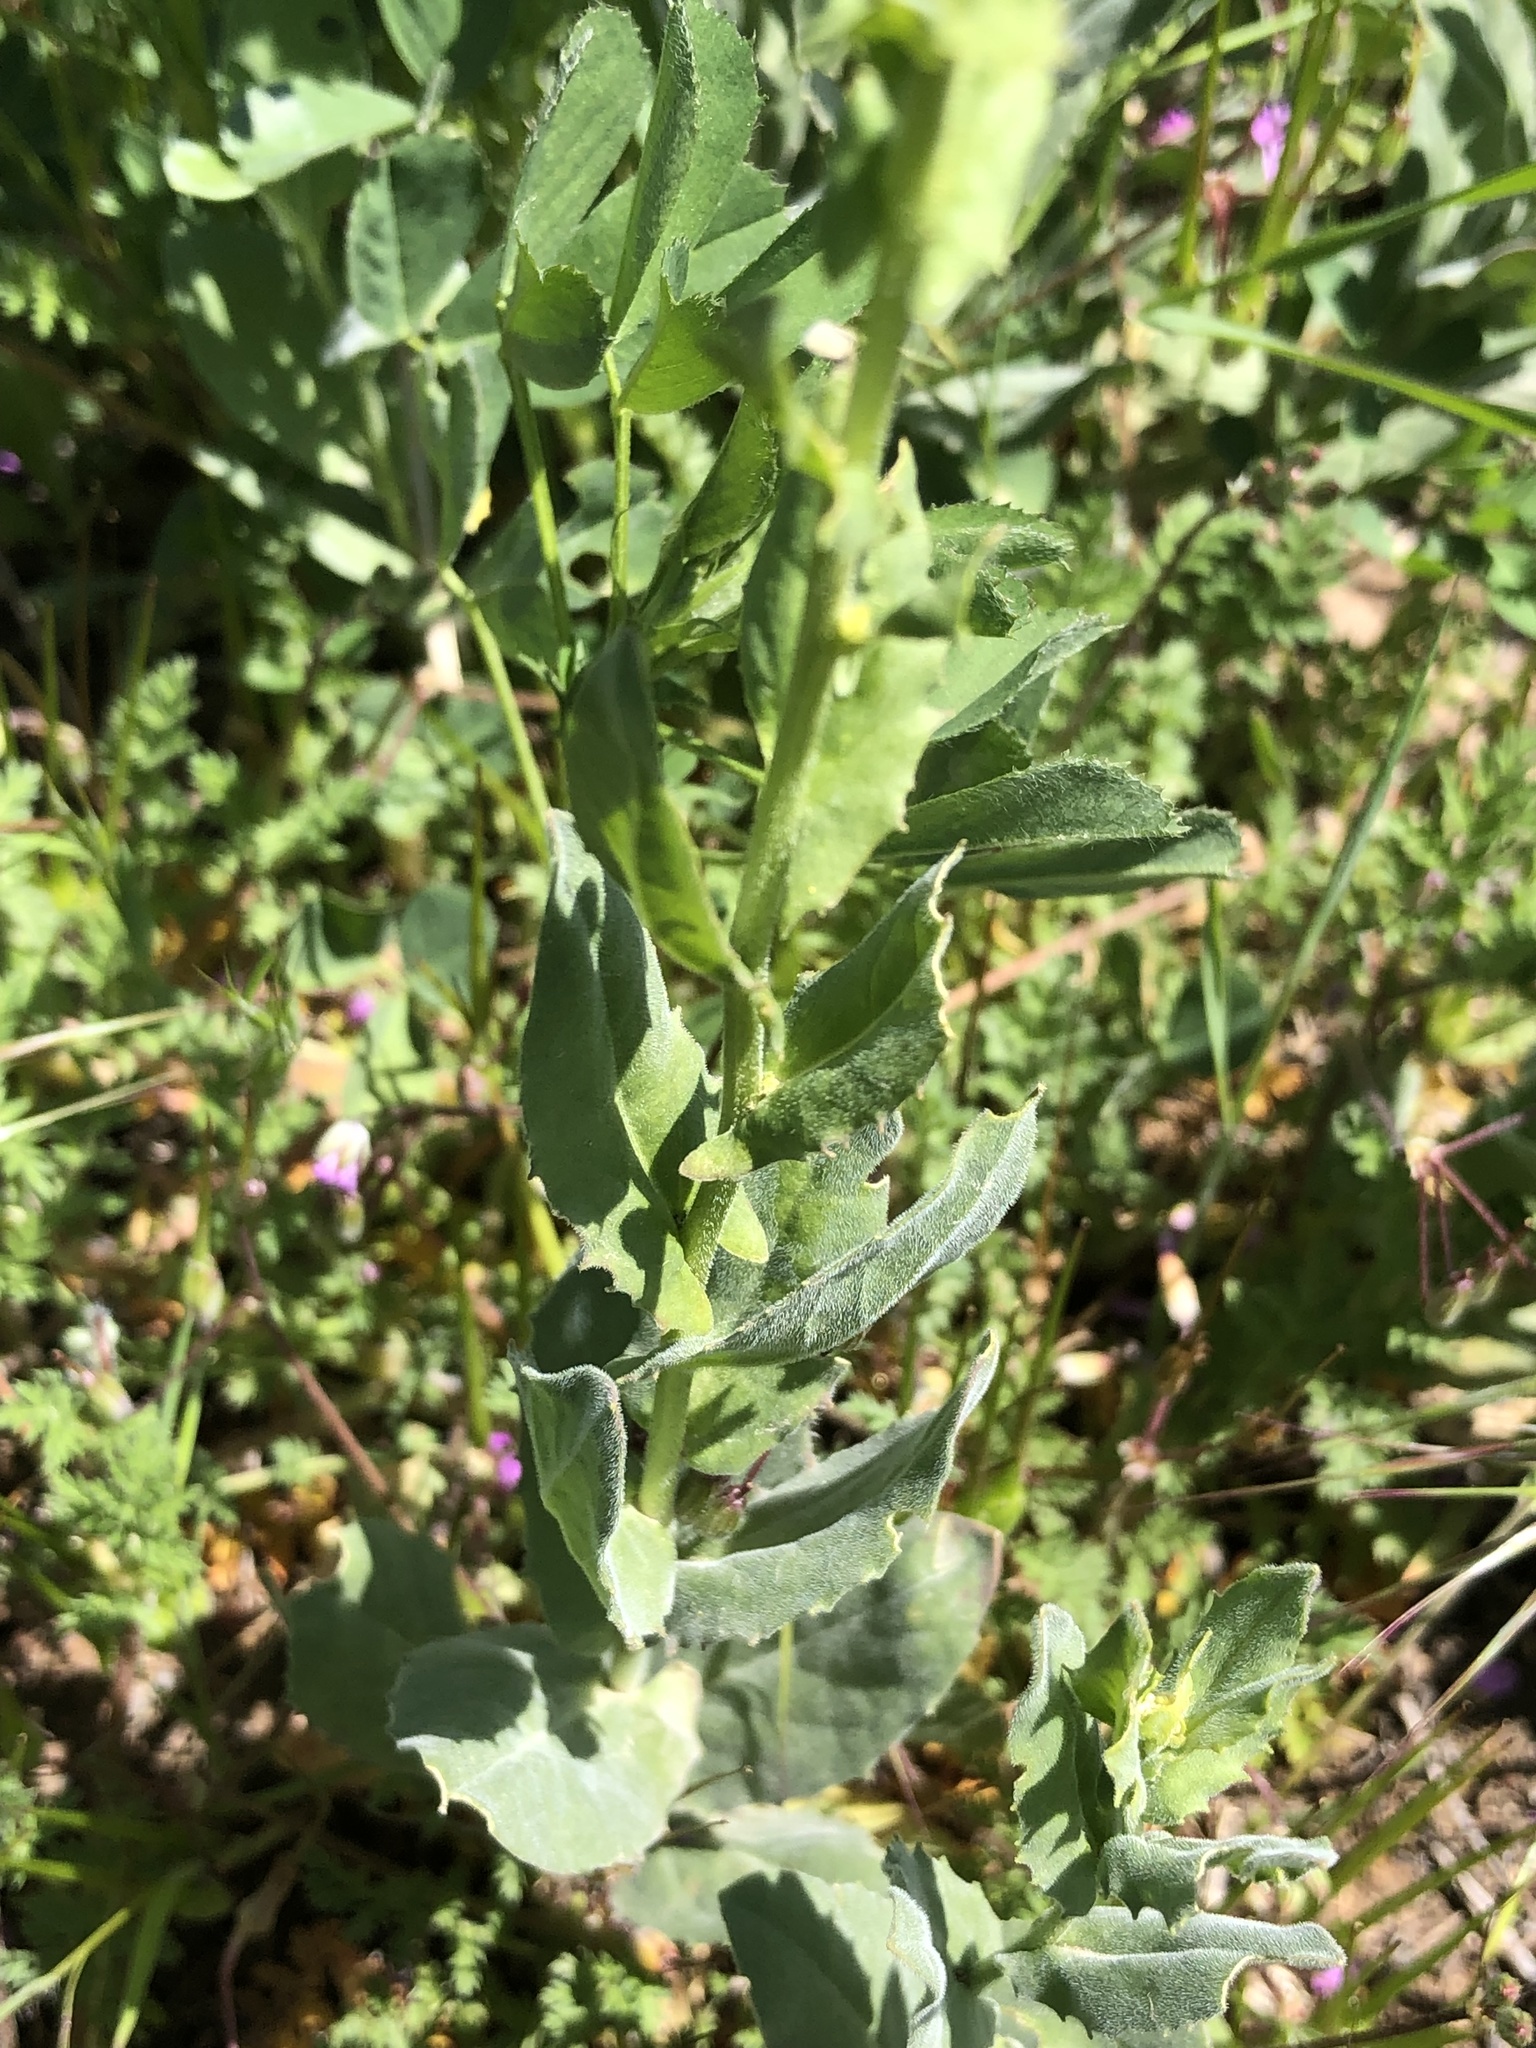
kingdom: Plantae
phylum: Tracheophyta
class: Magnoliopsida
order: Brassicales
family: Brassicaceae
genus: Lepidium
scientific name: Lepidium latifolium
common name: Dittander
